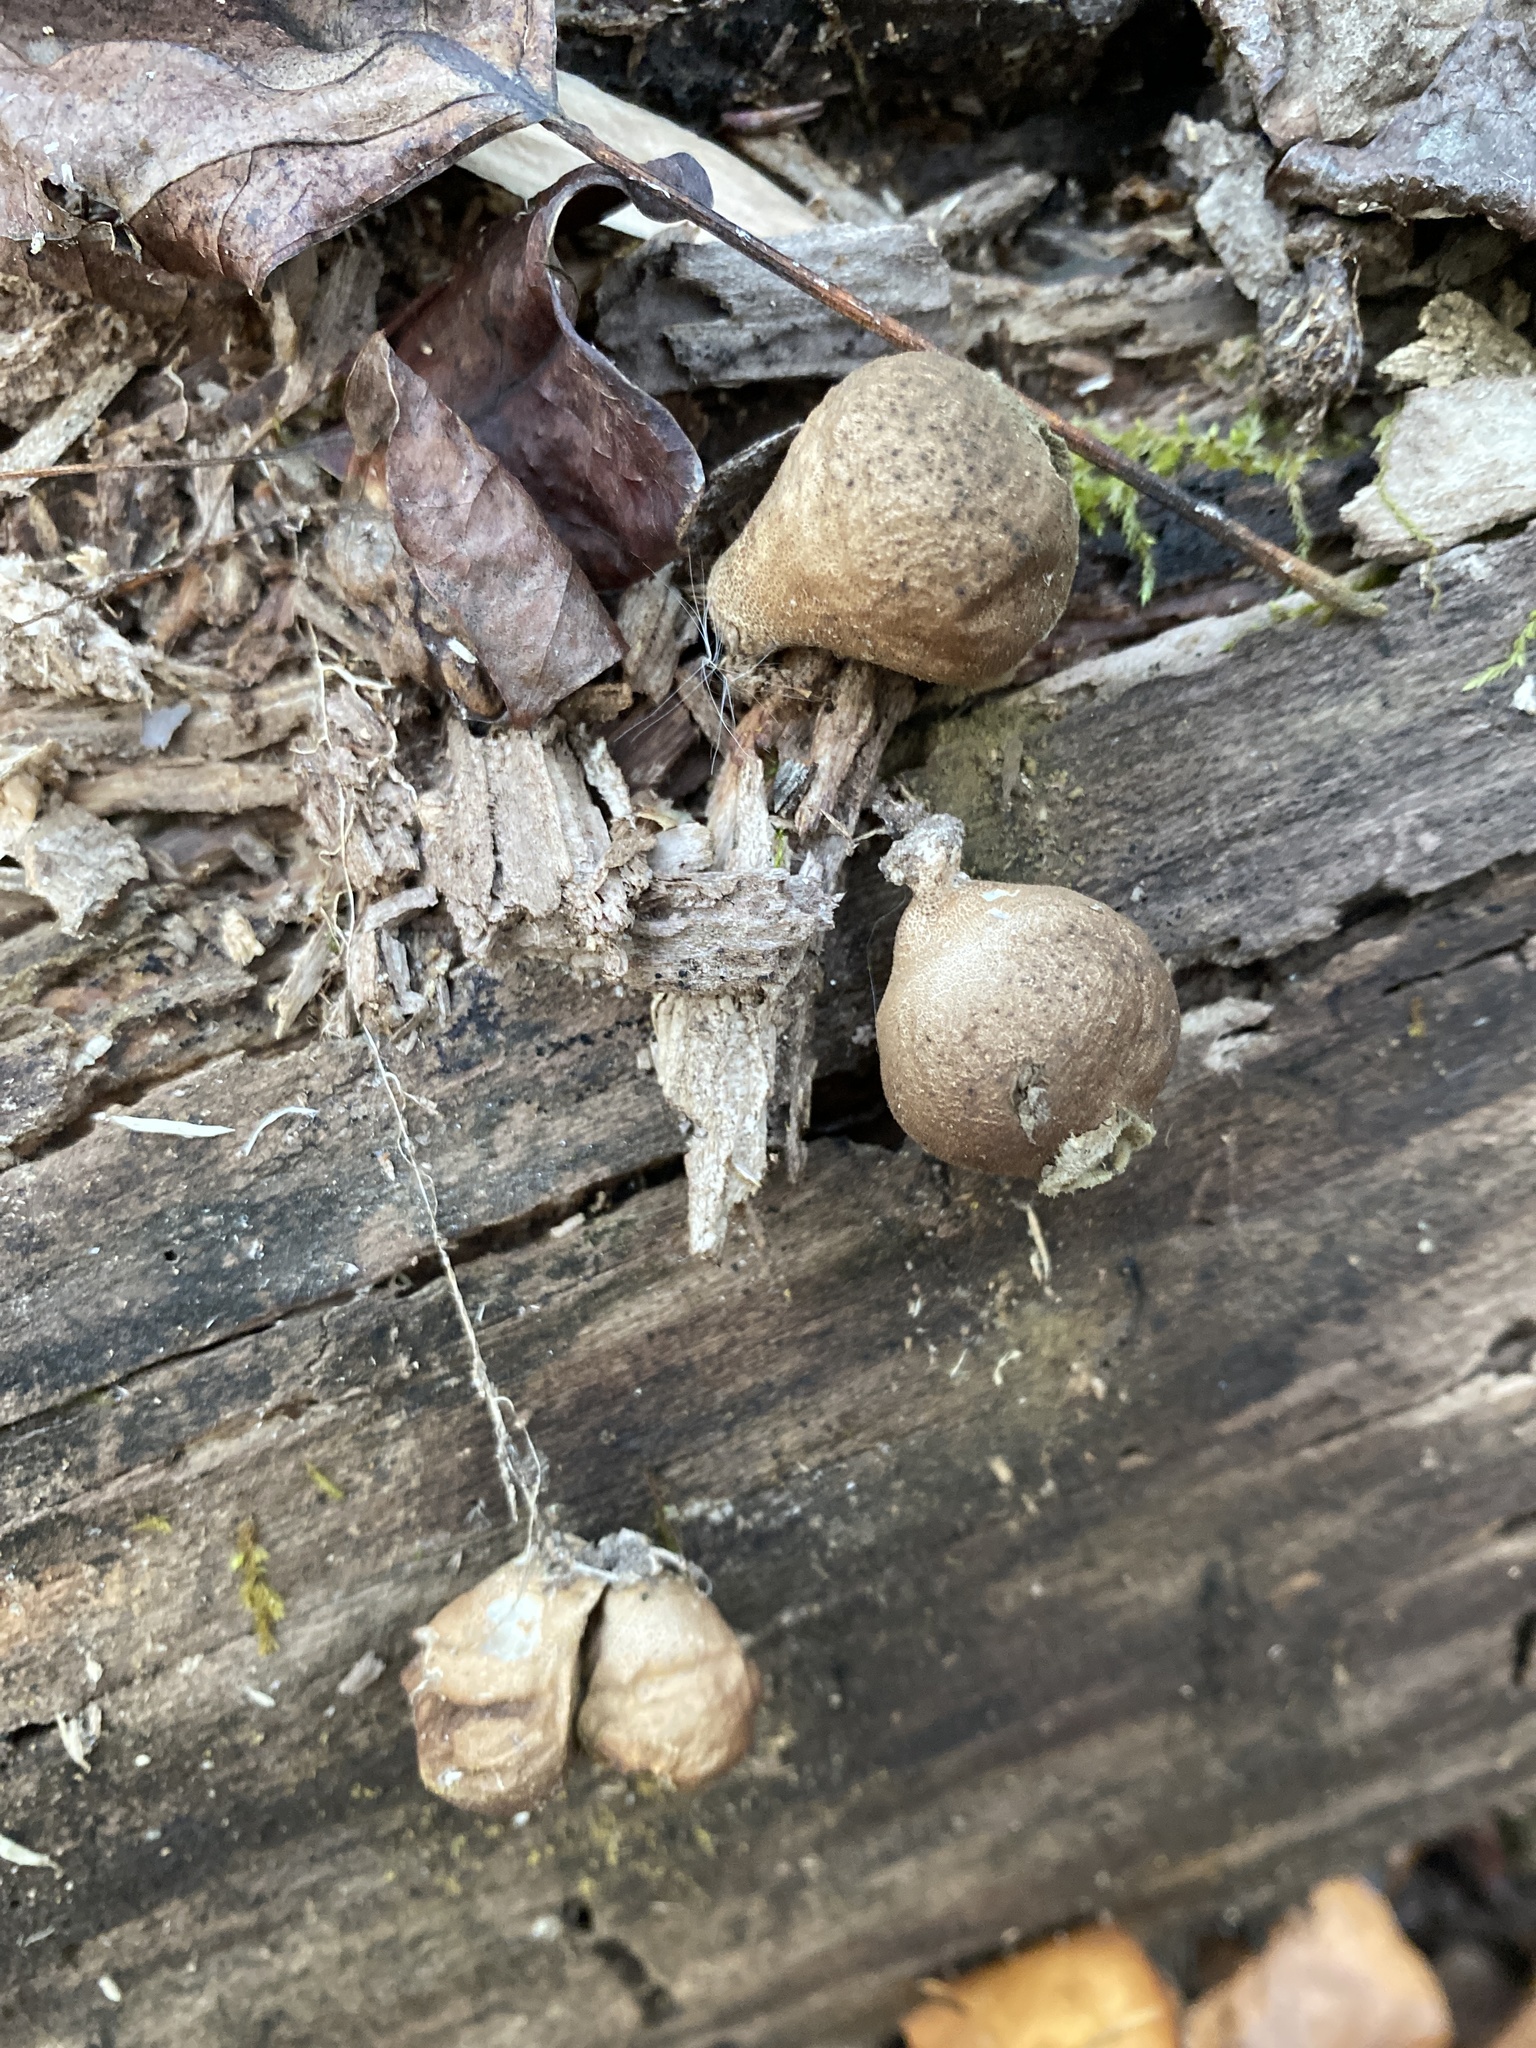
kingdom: Fungi
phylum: Basidiomycota
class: Agaricomycetes
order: Agaricales
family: Lycoperdaceae
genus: Apioperdon
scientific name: Apioperdon pyriforme
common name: Pear-shaped puffball
